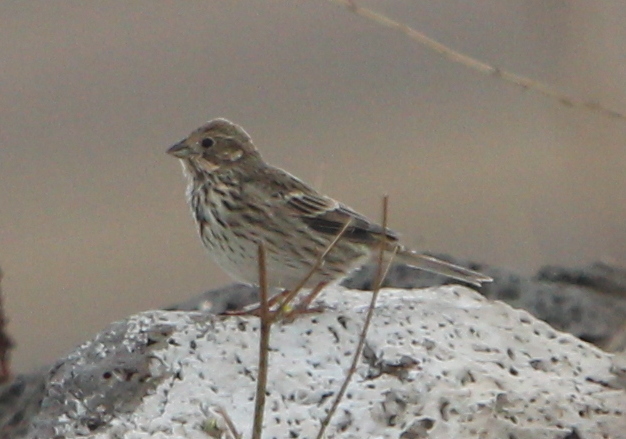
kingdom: Animalia
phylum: Chordata
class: Aves
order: Passeriformes
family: Emberizidae
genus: Emberiza
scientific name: Emberiza calandra
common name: Corn bunting
